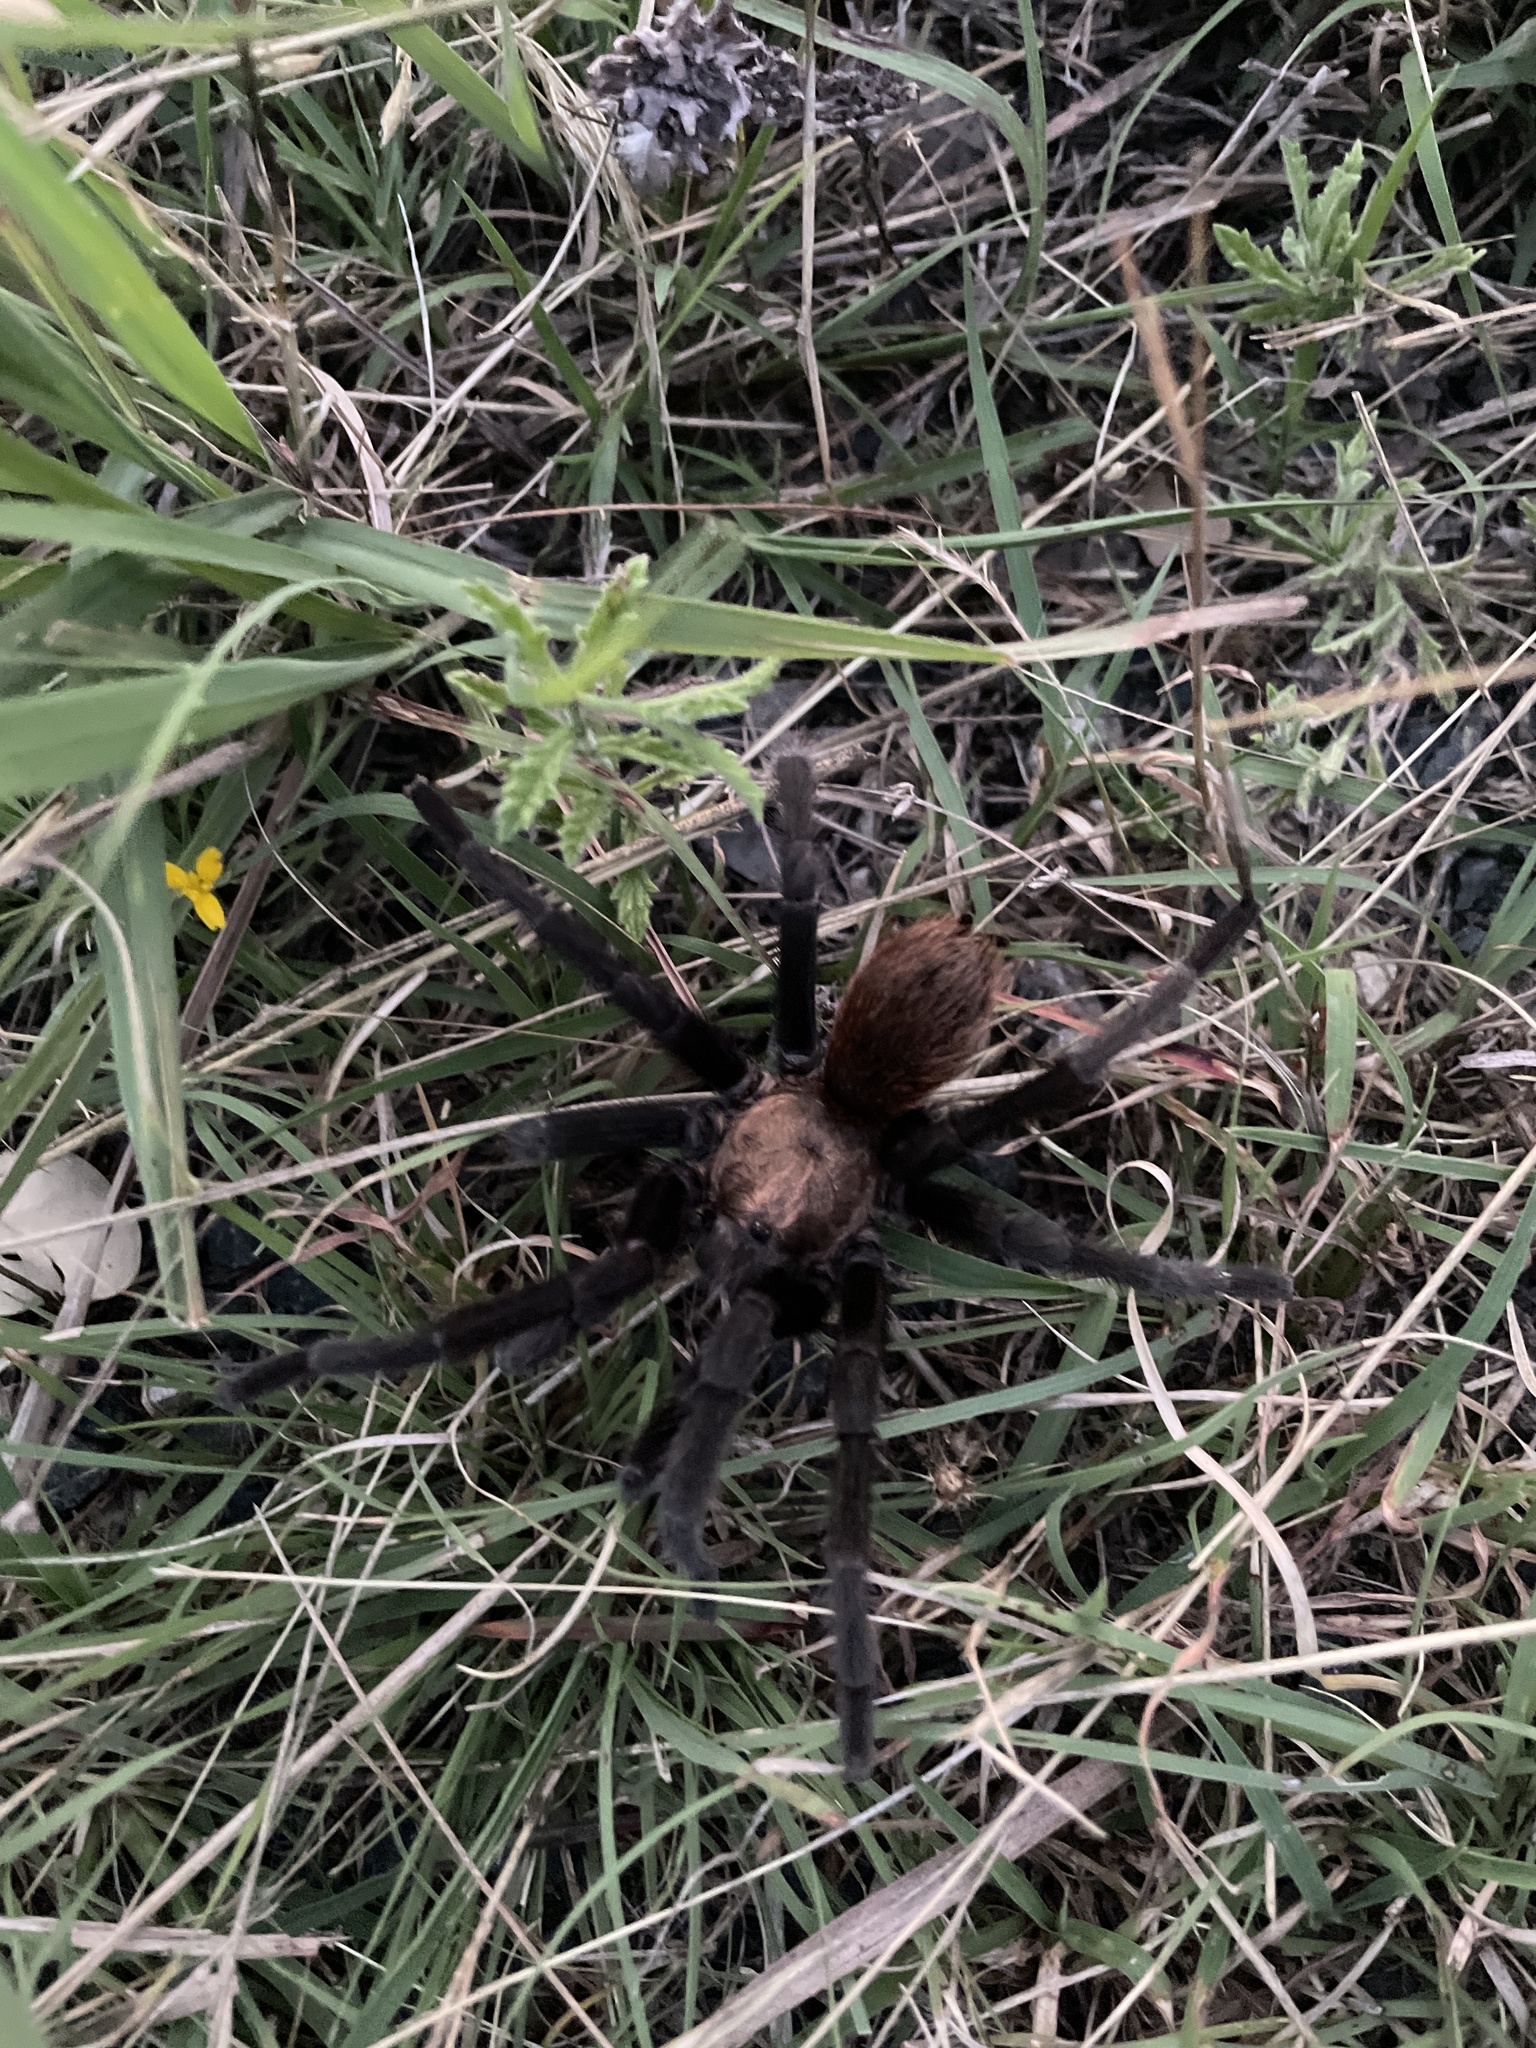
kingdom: Animalia
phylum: Arthropoda
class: Arachnida
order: Araneae
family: Theraphosidae
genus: Aphonopelma
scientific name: Aphonopelma hentzi
